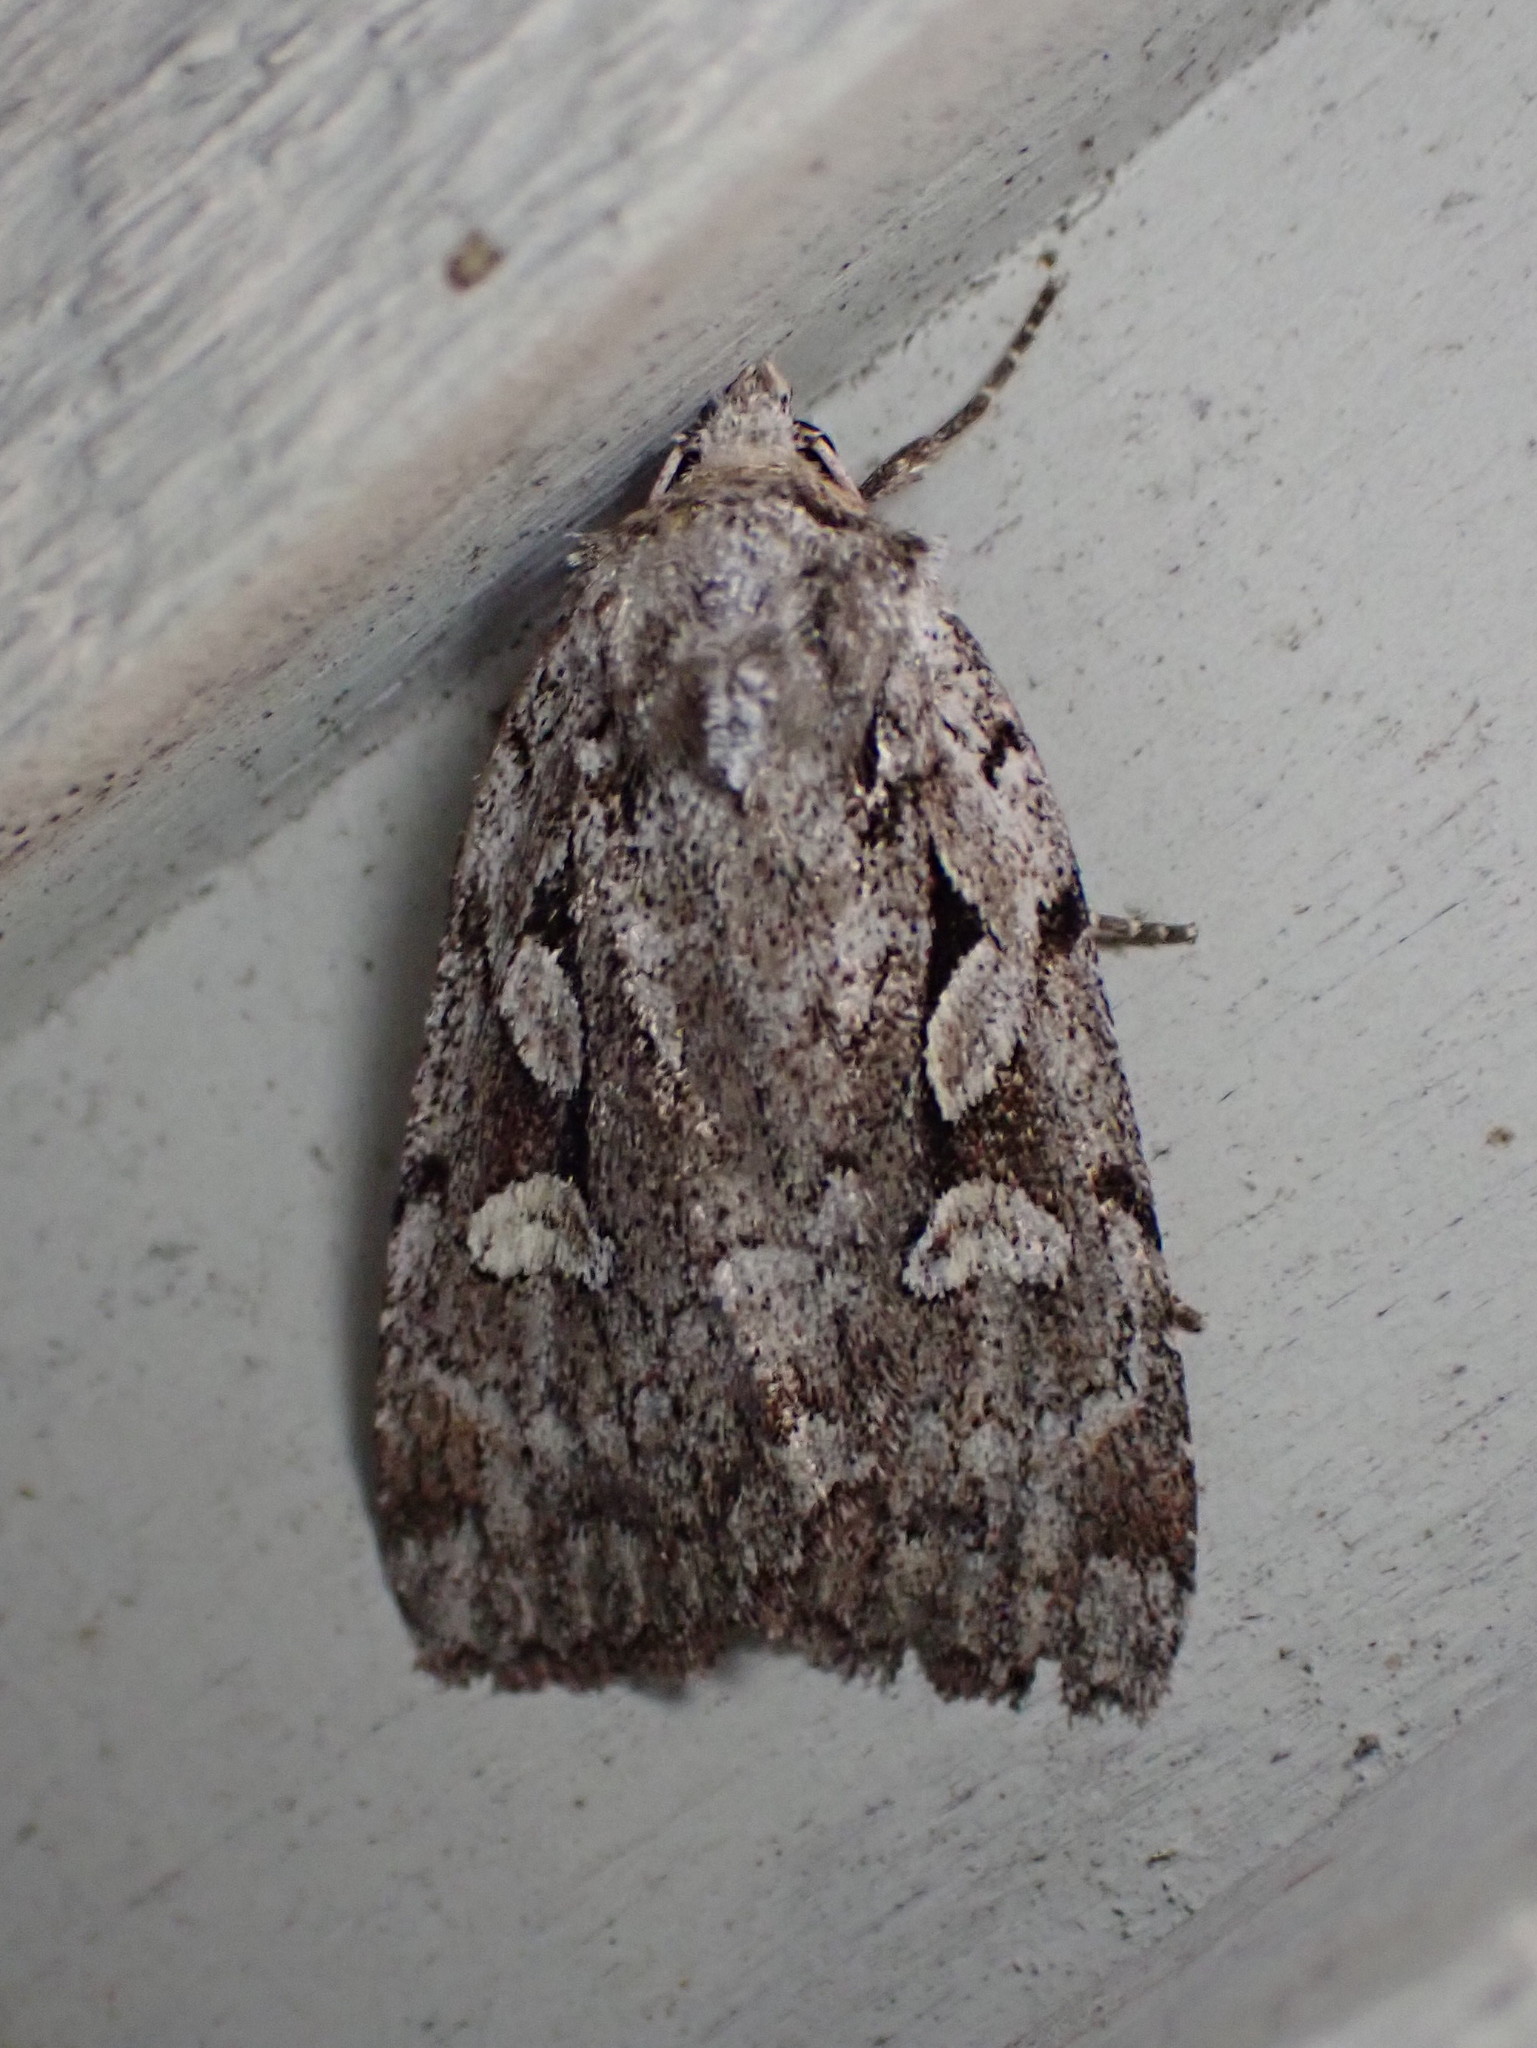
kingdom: Animalia
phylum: Arthropoda
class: Insecta
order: Lepidoptera
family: Noctuidae
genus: Xestia
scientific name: Xestia badicollis
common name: Northern variable dart
